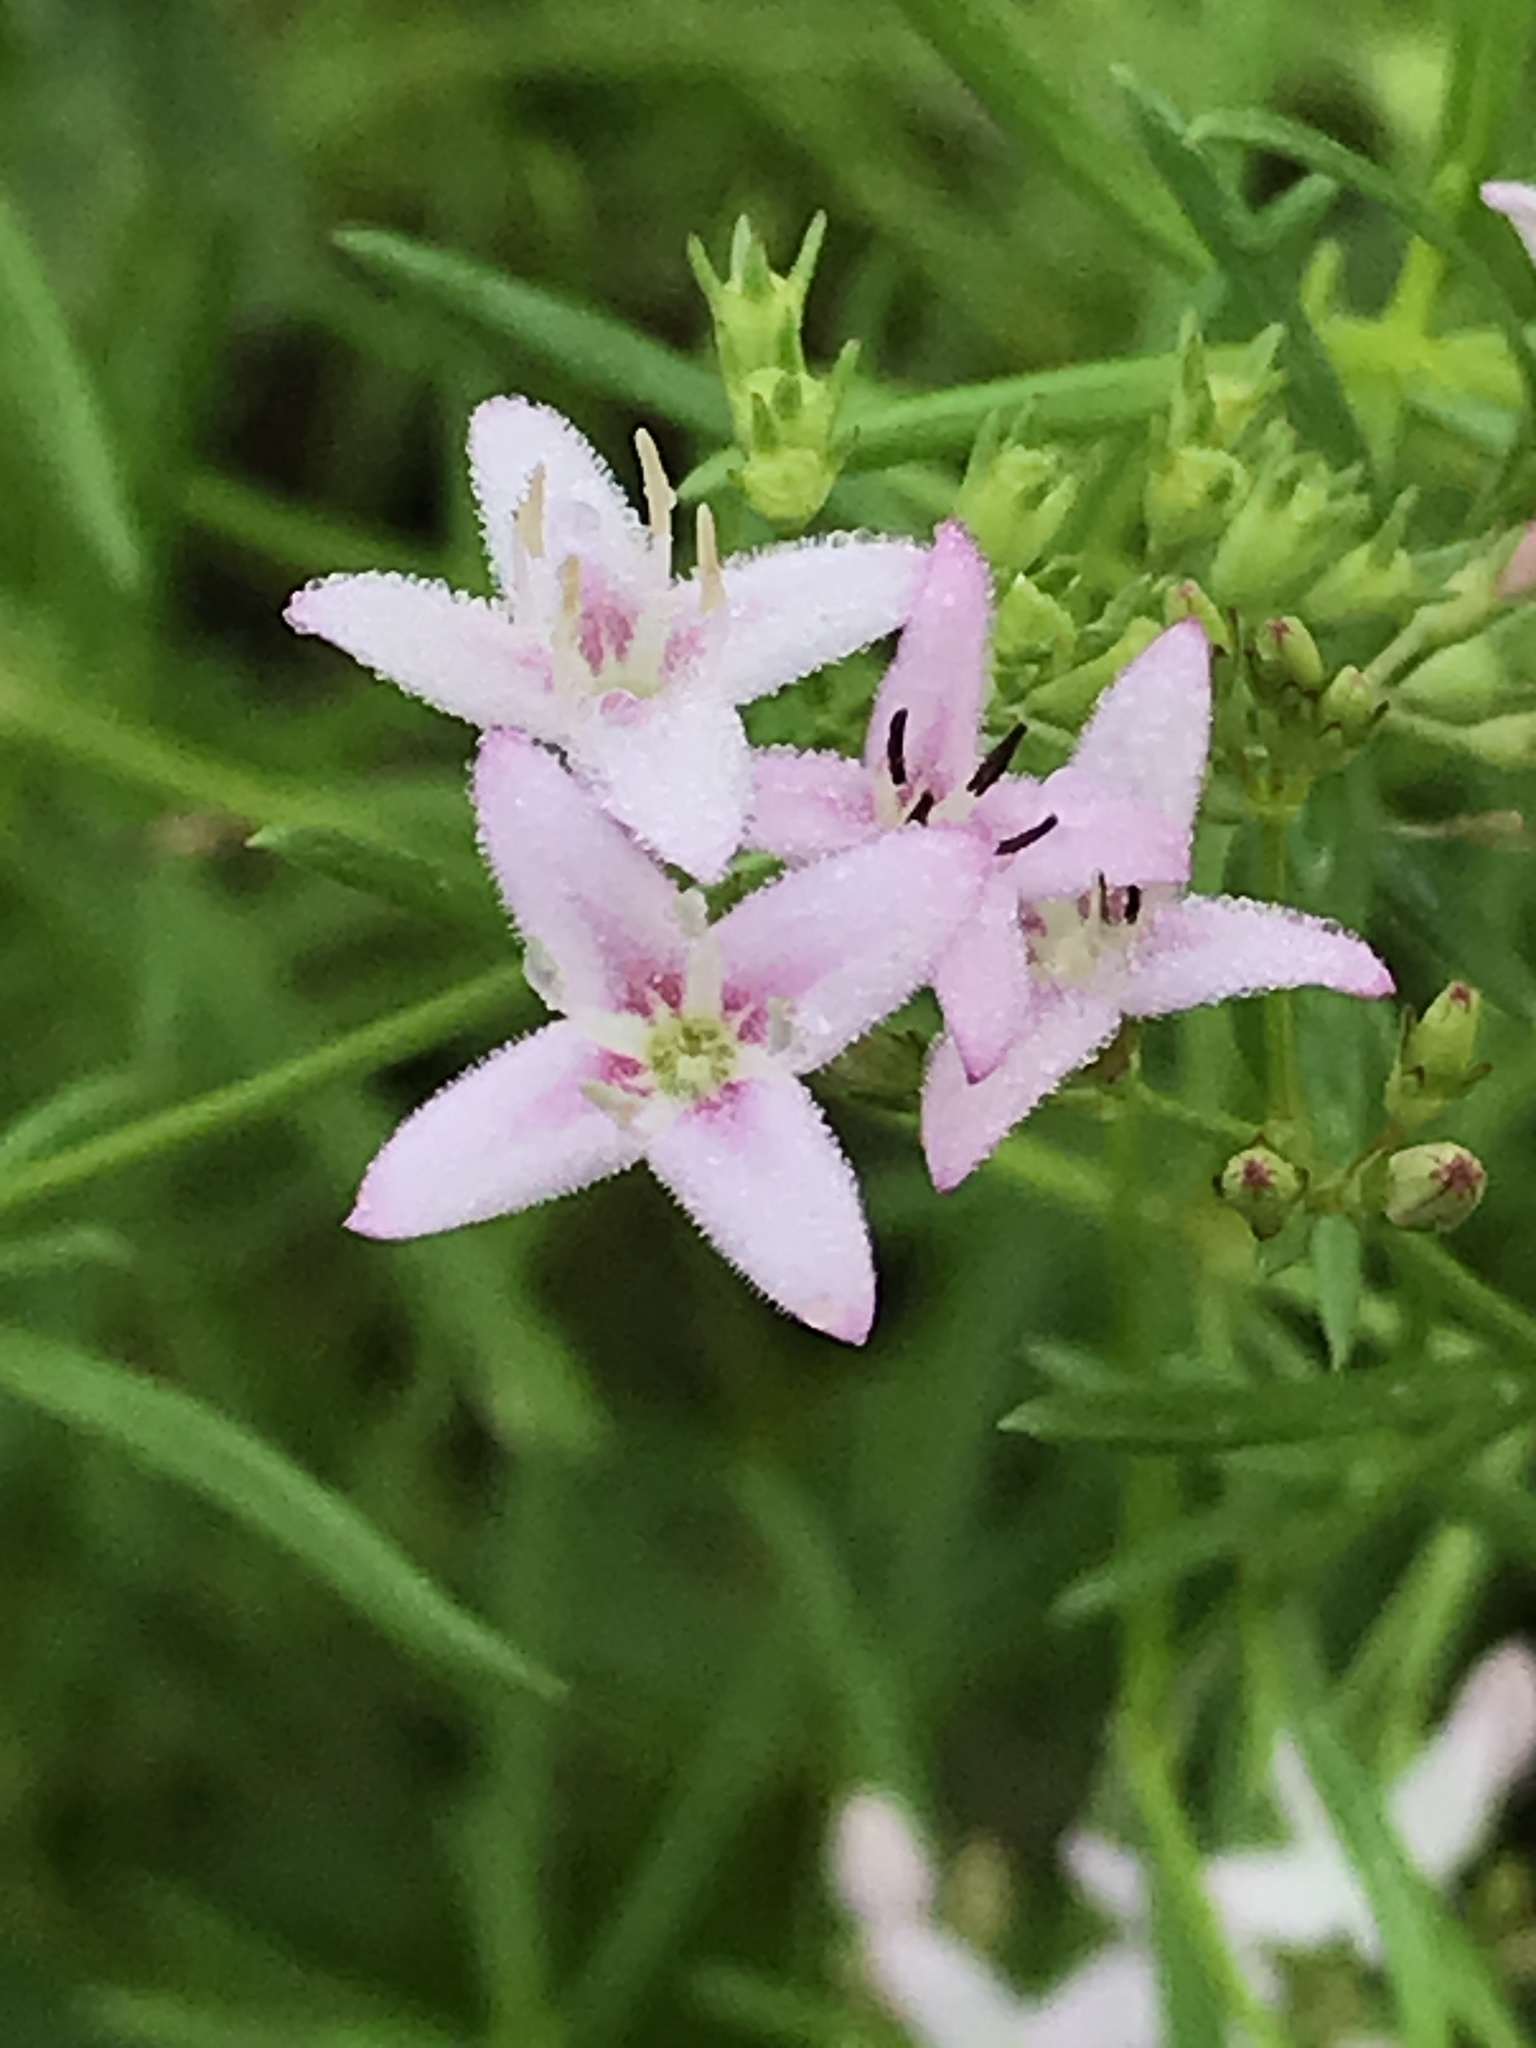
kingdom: Plantae
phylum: Tracheophyta
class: Magnoliopsida
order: Gentianales
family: Rubiaceae
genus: Stenaria
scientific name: Stenaria nigricans
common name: Diamondflowers
